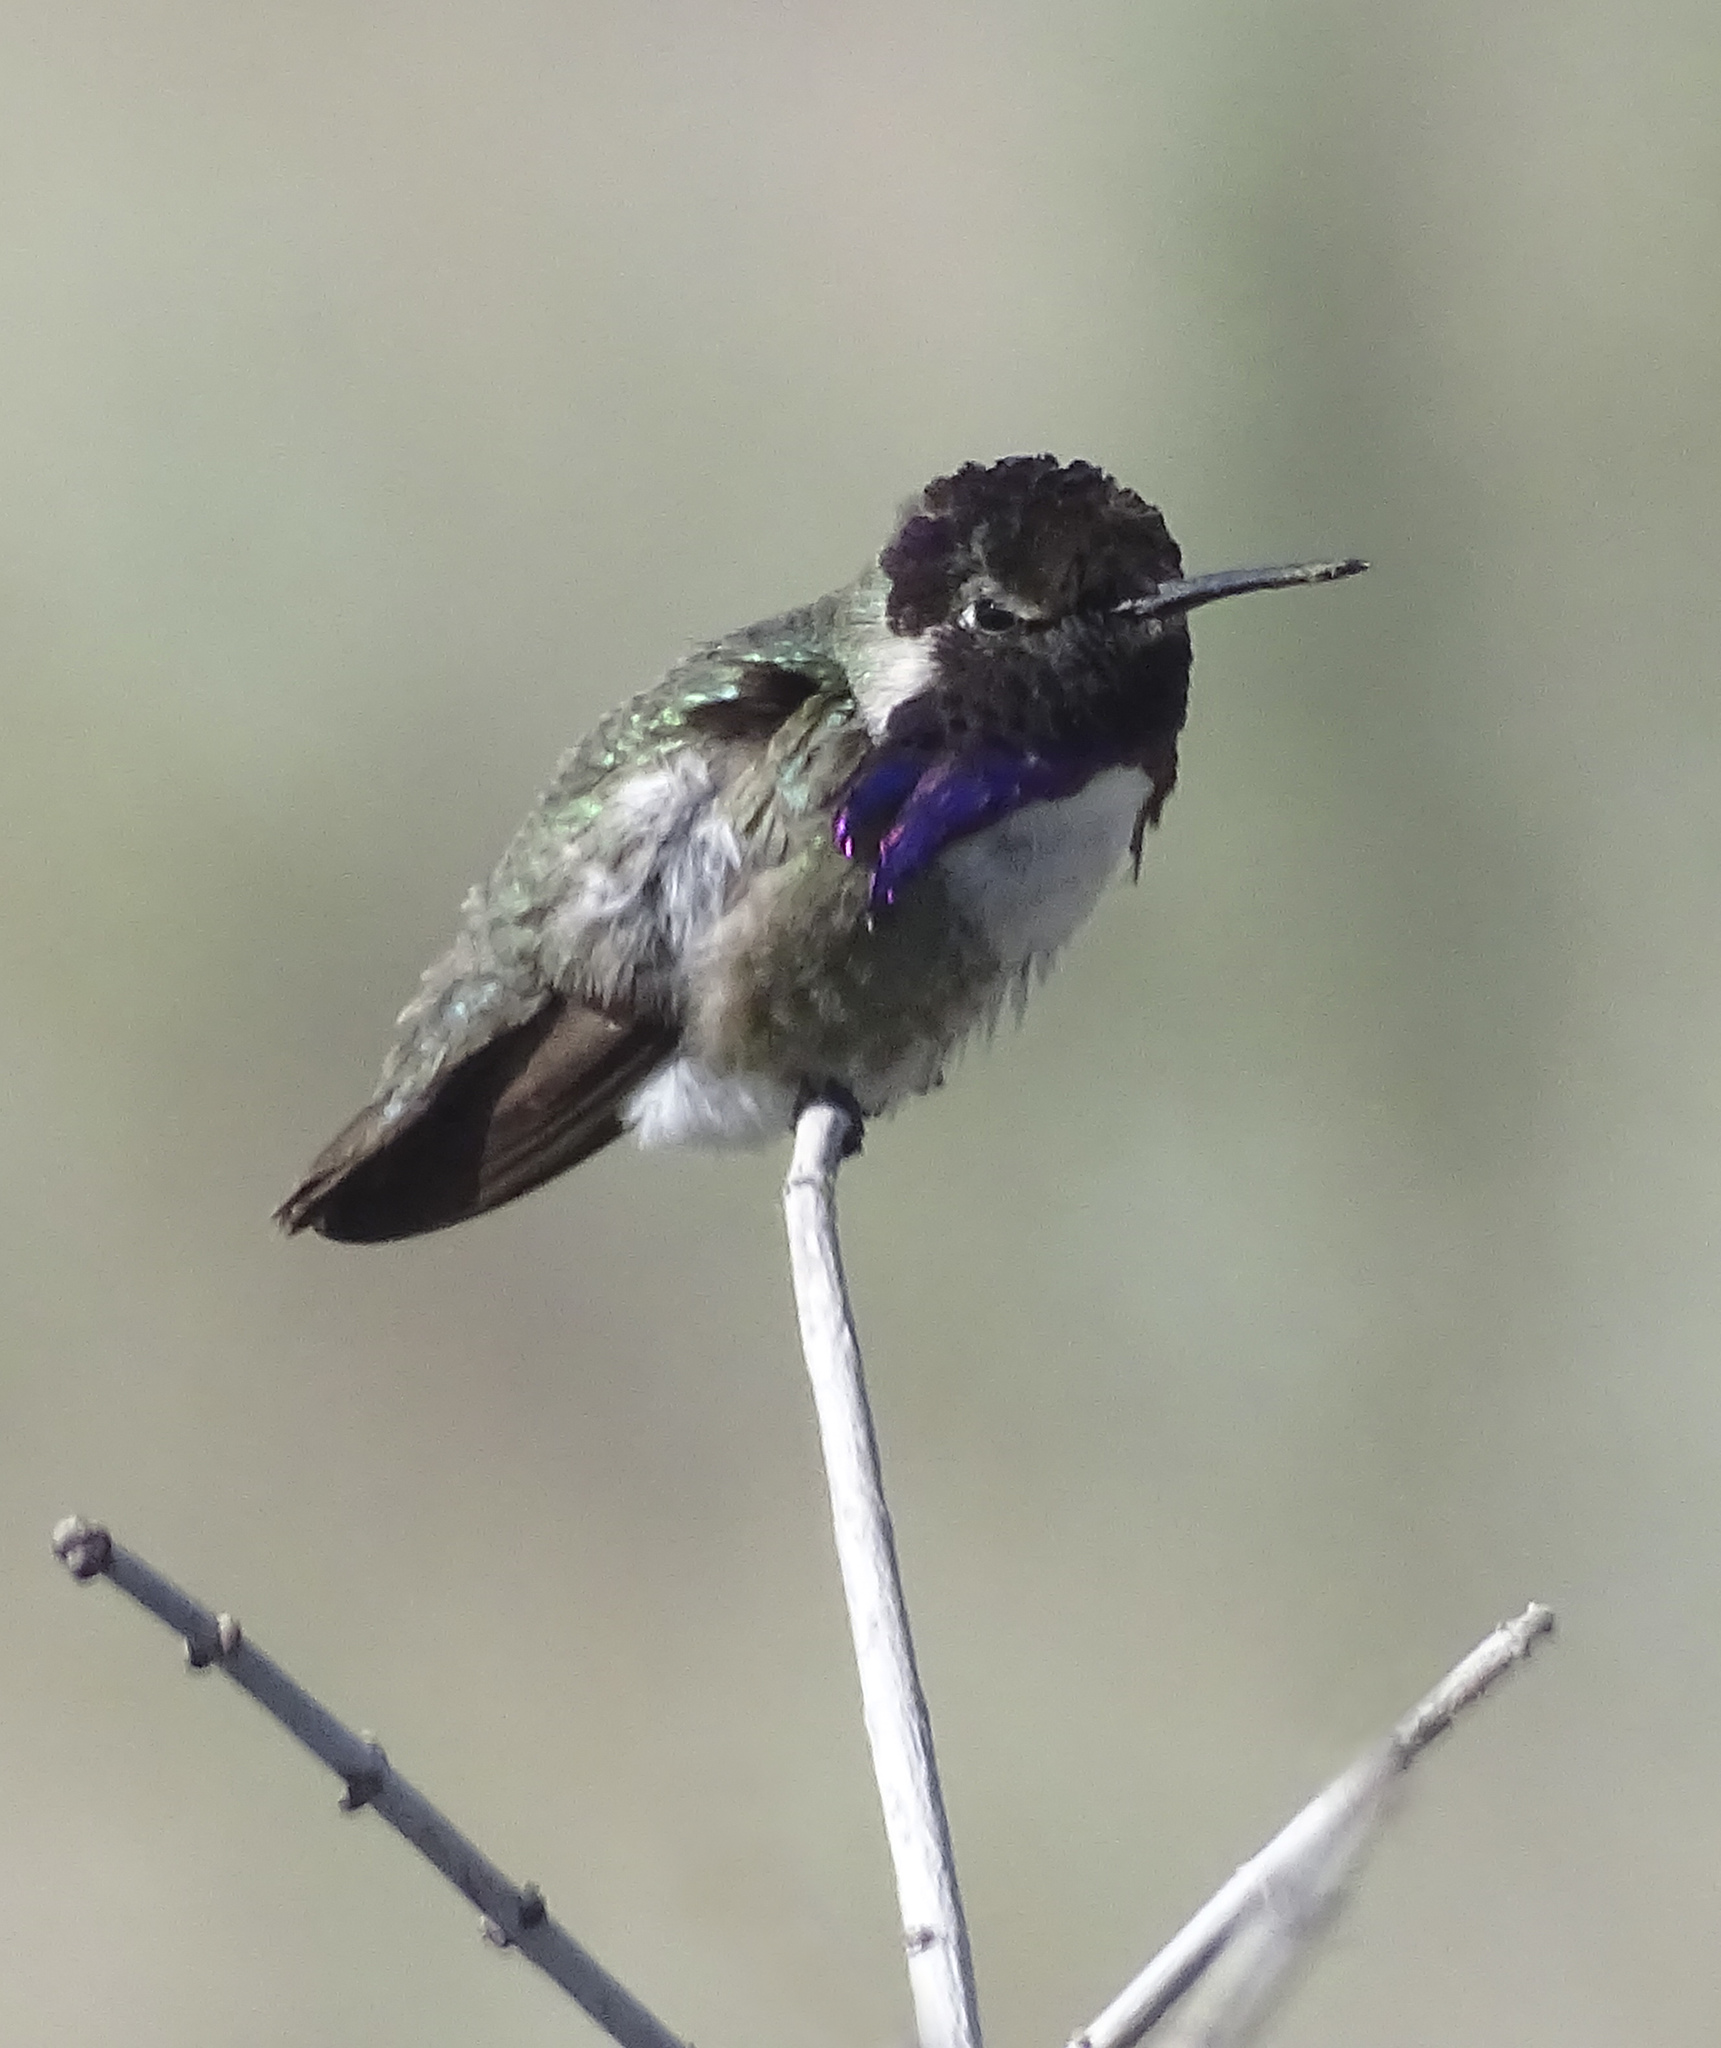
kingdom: Animalia
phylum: Chordata
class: Aves
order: Apodiformes
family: Trochilidae
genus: Calypte
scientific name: Calypte costae
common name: Costa's hummingbird
